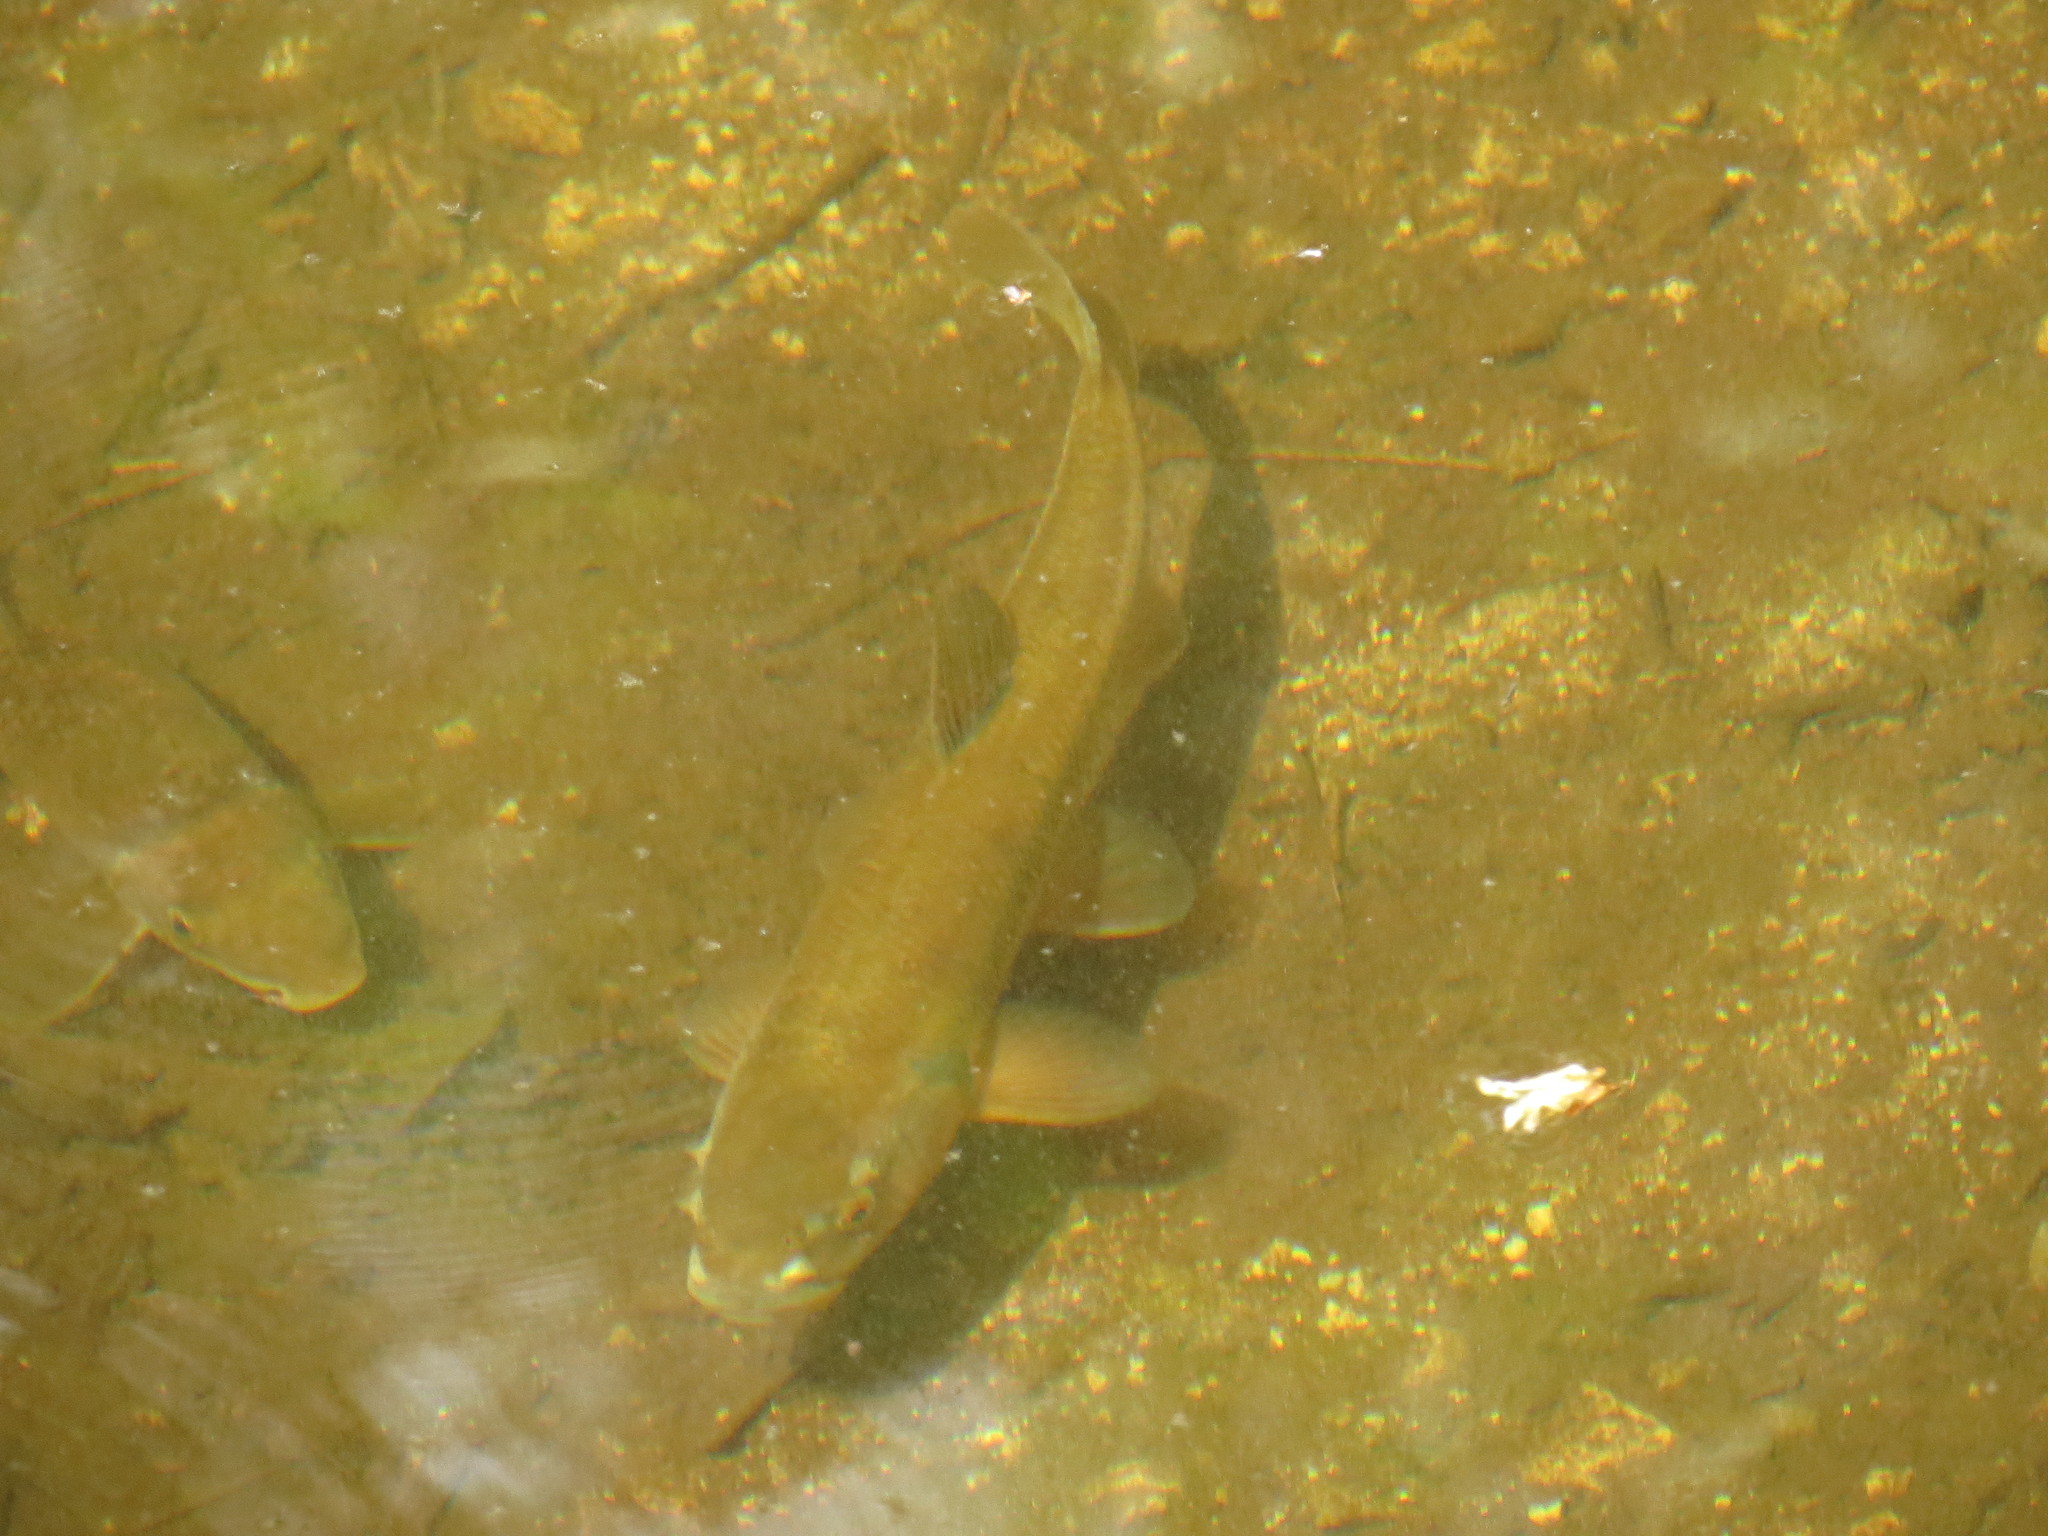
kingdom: Animalia
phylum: Chordata
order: Cypriniformes
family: Cyprinidae
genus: Semotilus
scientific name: Semotilus atromaculatus
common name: Creek chub
